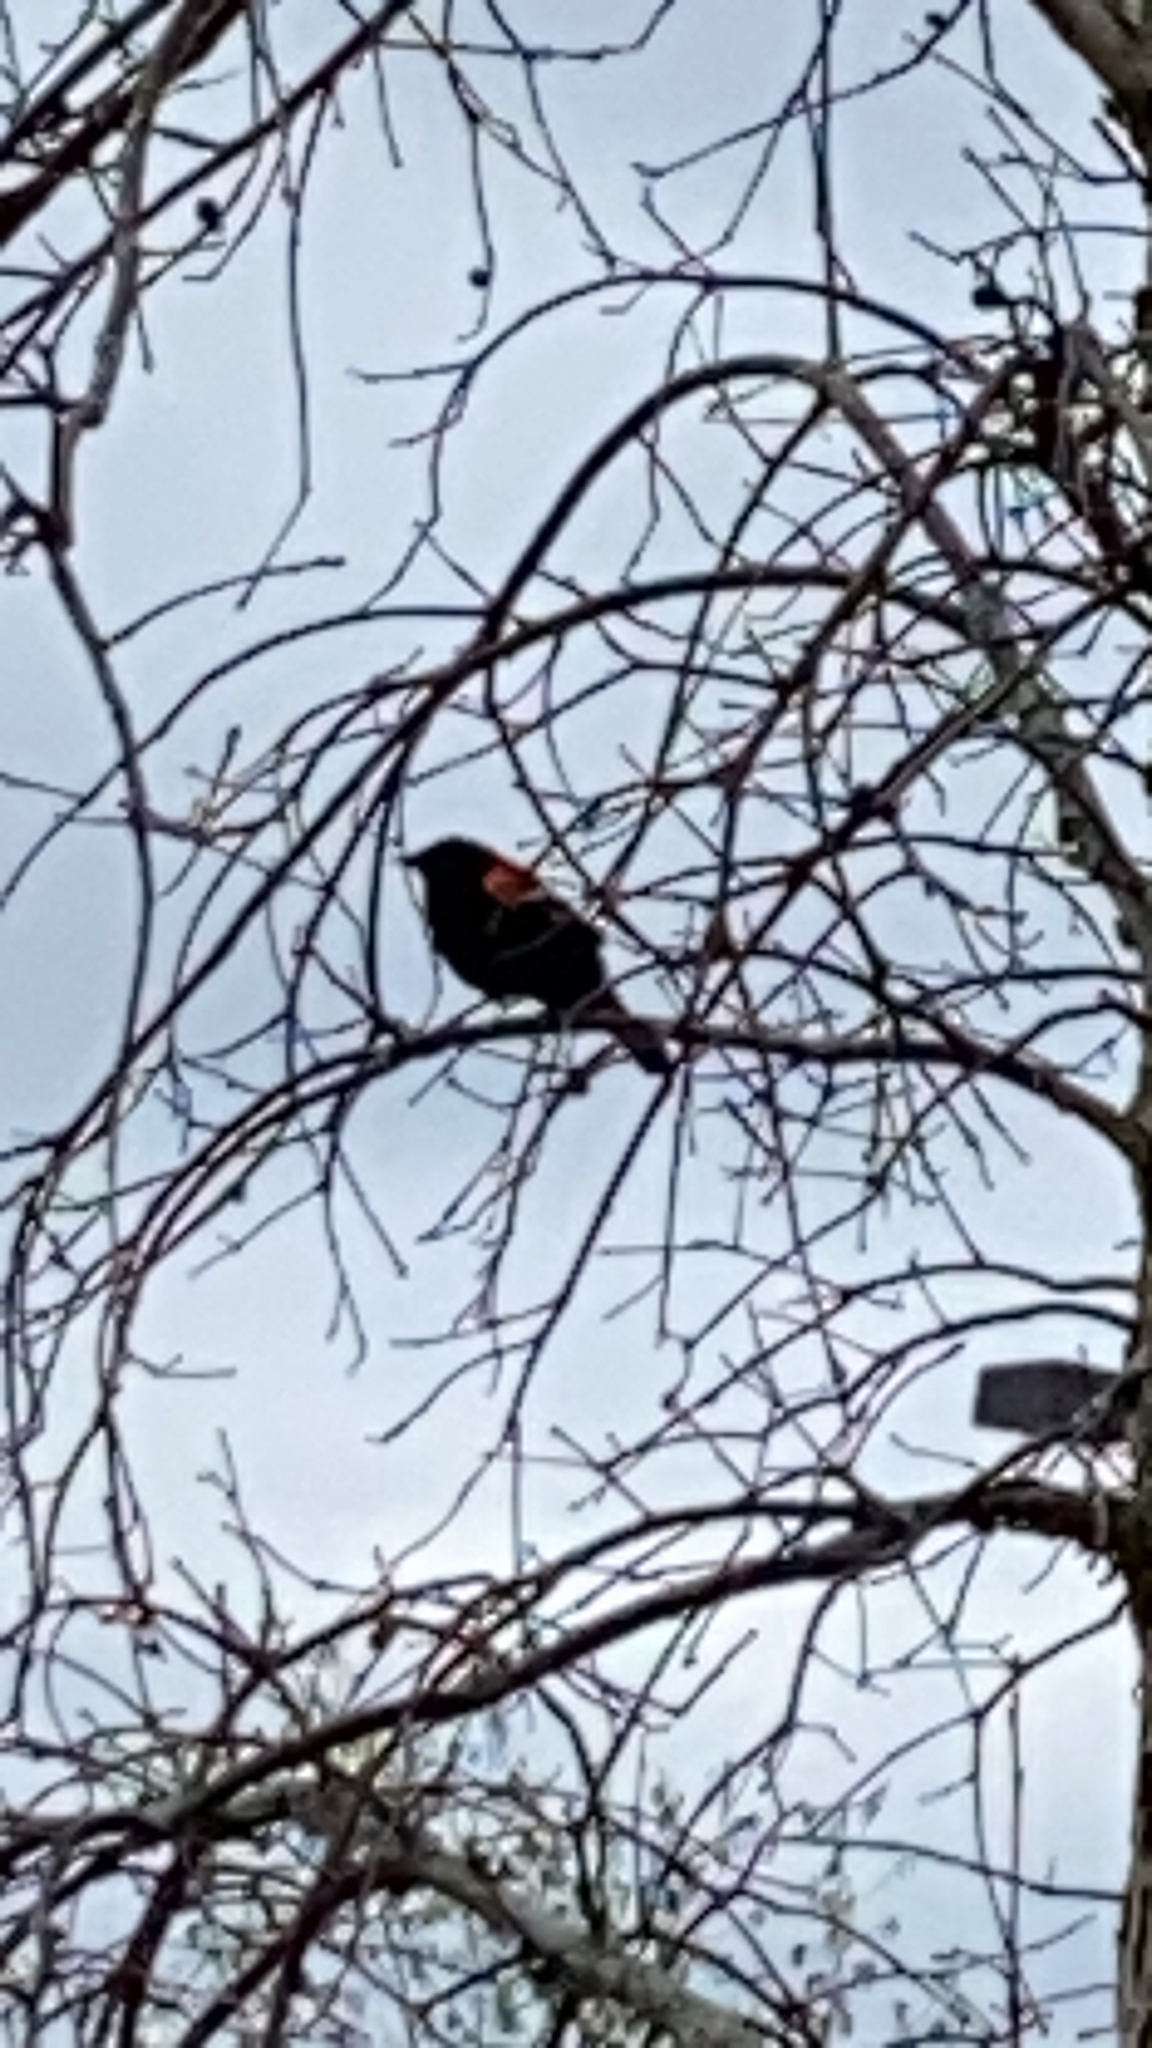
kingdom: Animalia
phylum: Chordata
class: Aves
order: Passeriformes
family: Icteridae
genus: Agelaius
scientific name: Agelaius phoeniceus
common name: Red-winged blackbird
